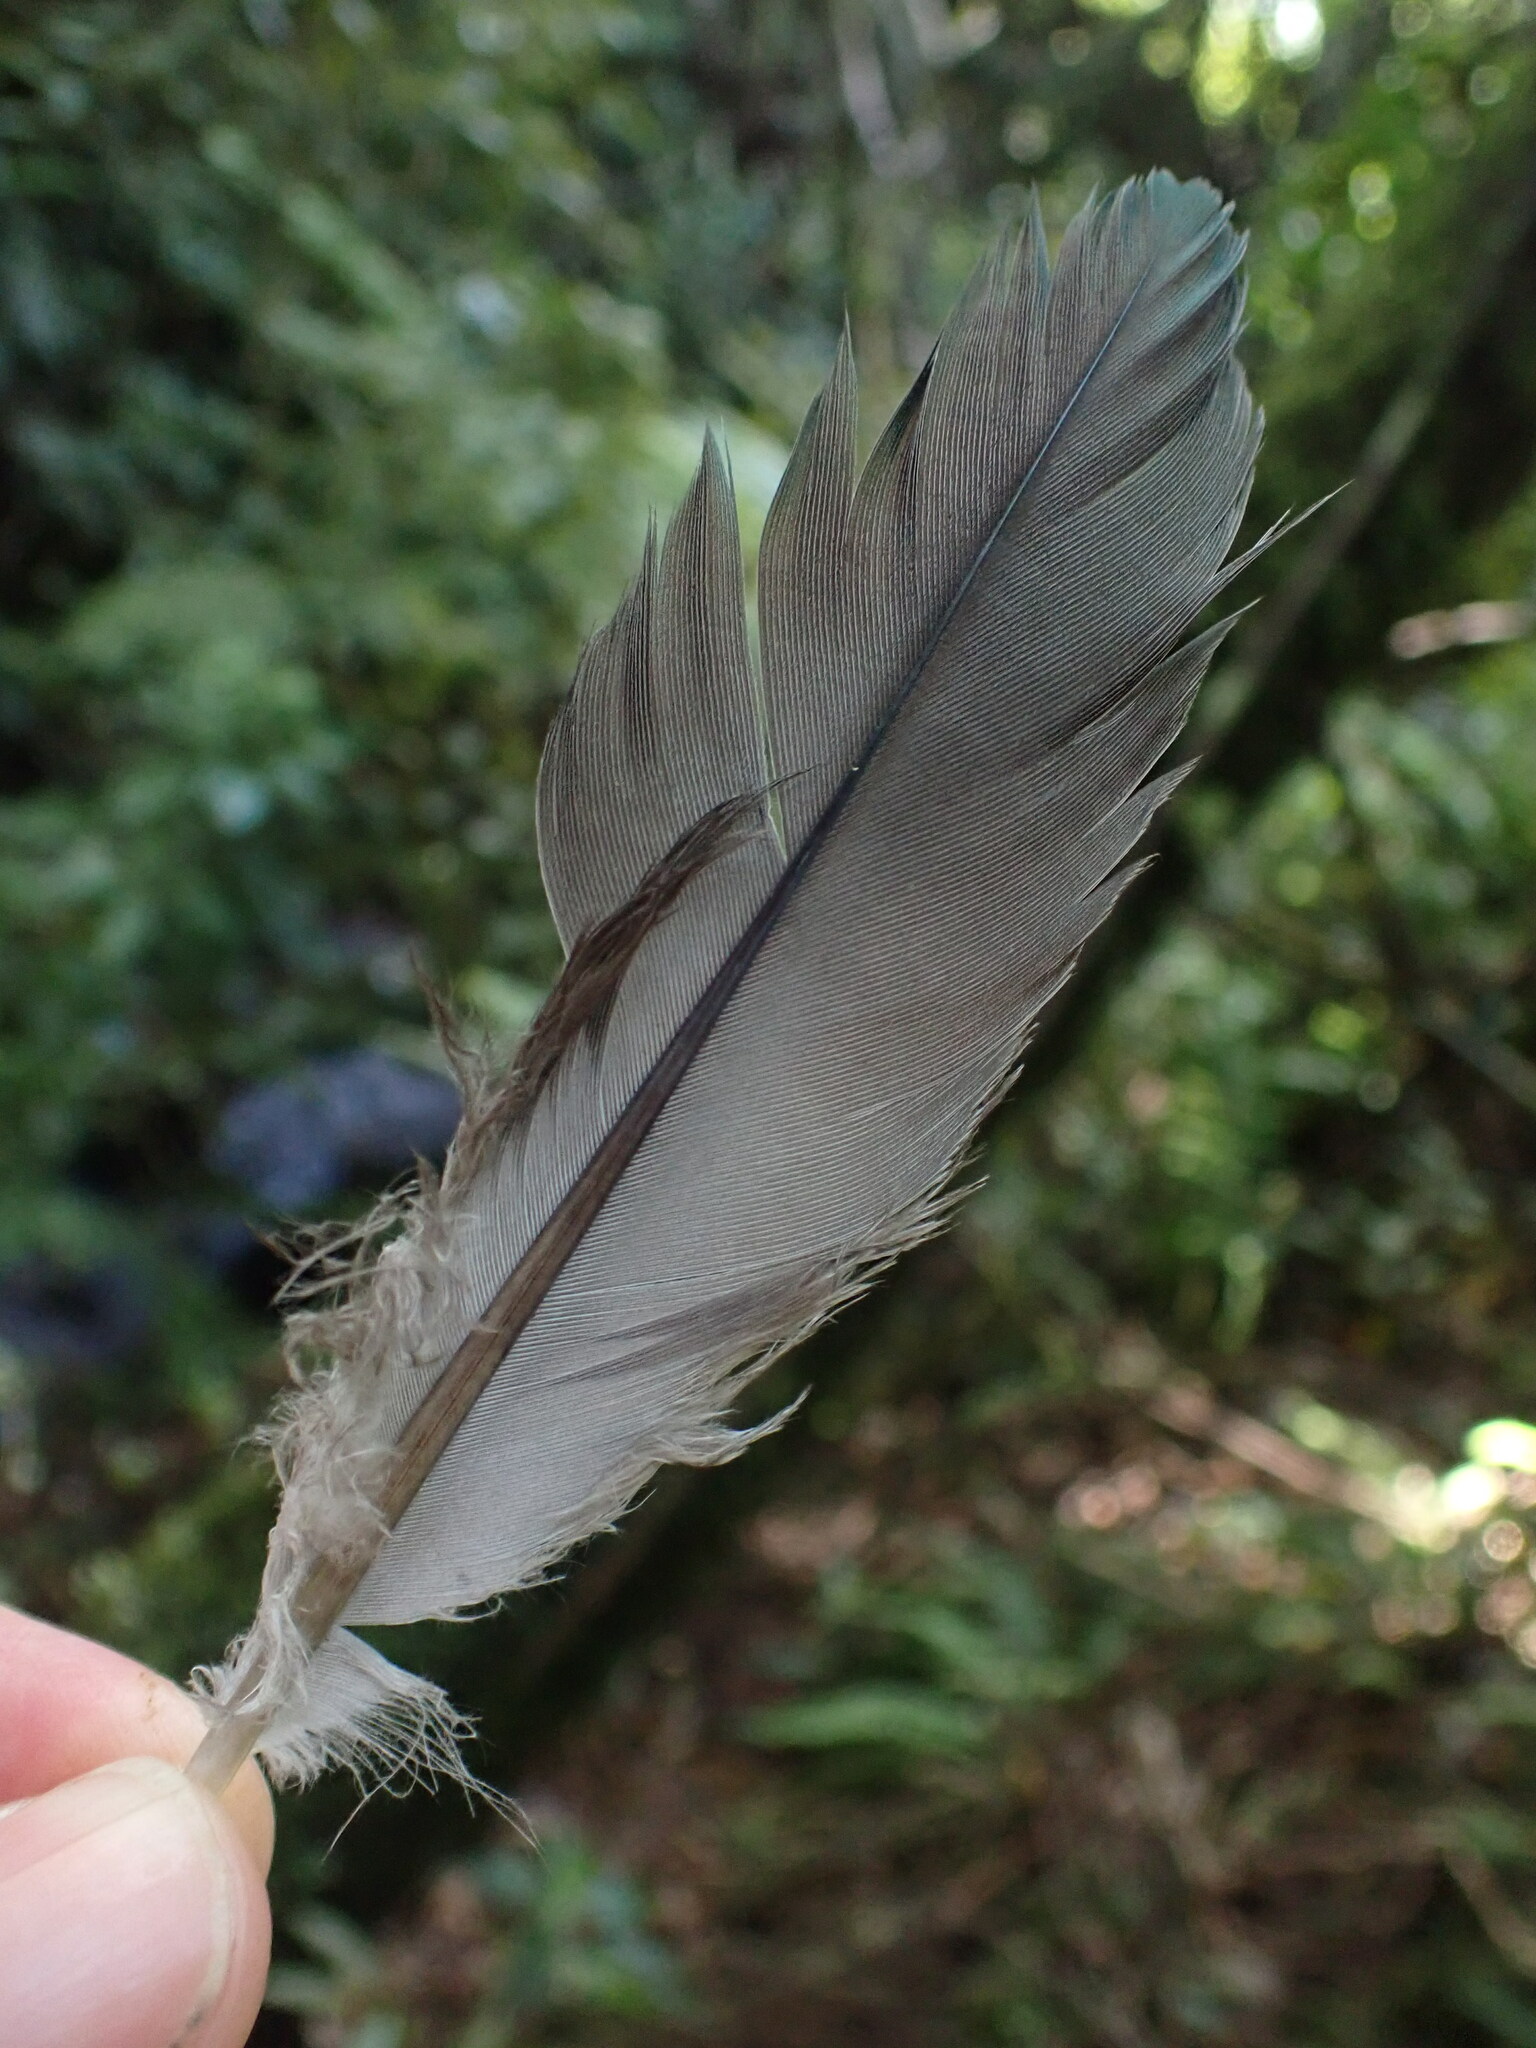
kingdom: Animalia
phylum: Chordata
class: Aves
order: Columbiformes
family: Columbidae
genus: Hemiphaga
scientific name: Hemiphaga novaeseelandiae
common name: New zealand pigeon
